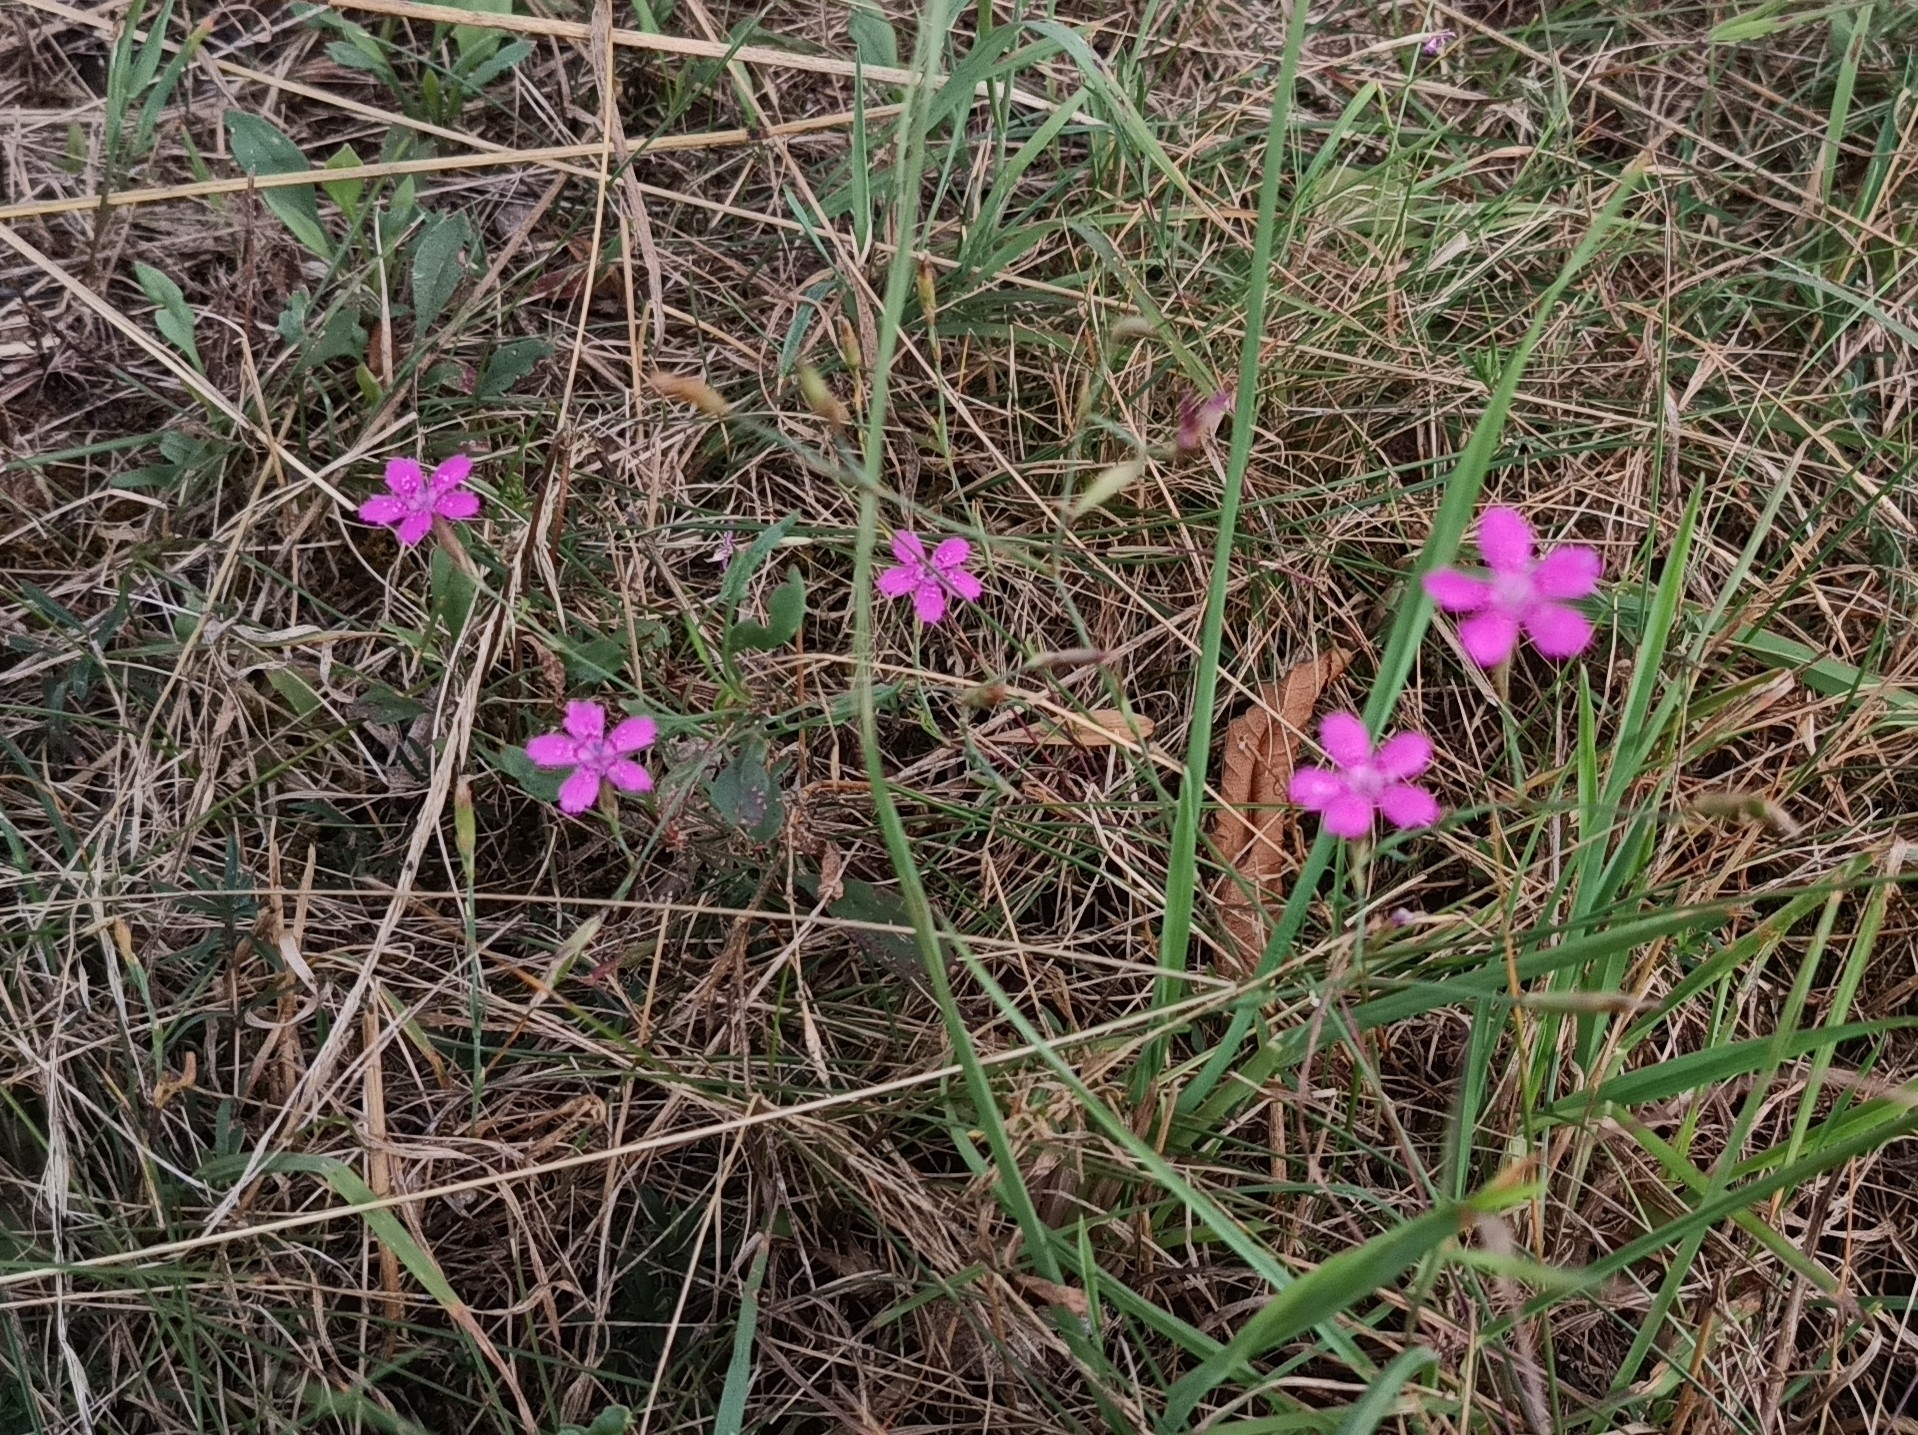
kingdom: Plantae
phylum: Tracheophyta
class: Magnoliopsida
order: Caryophyllales
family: Caryophyllaceae
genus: Dianthus
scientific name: Dianthus deltoides
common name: Maiden pink
